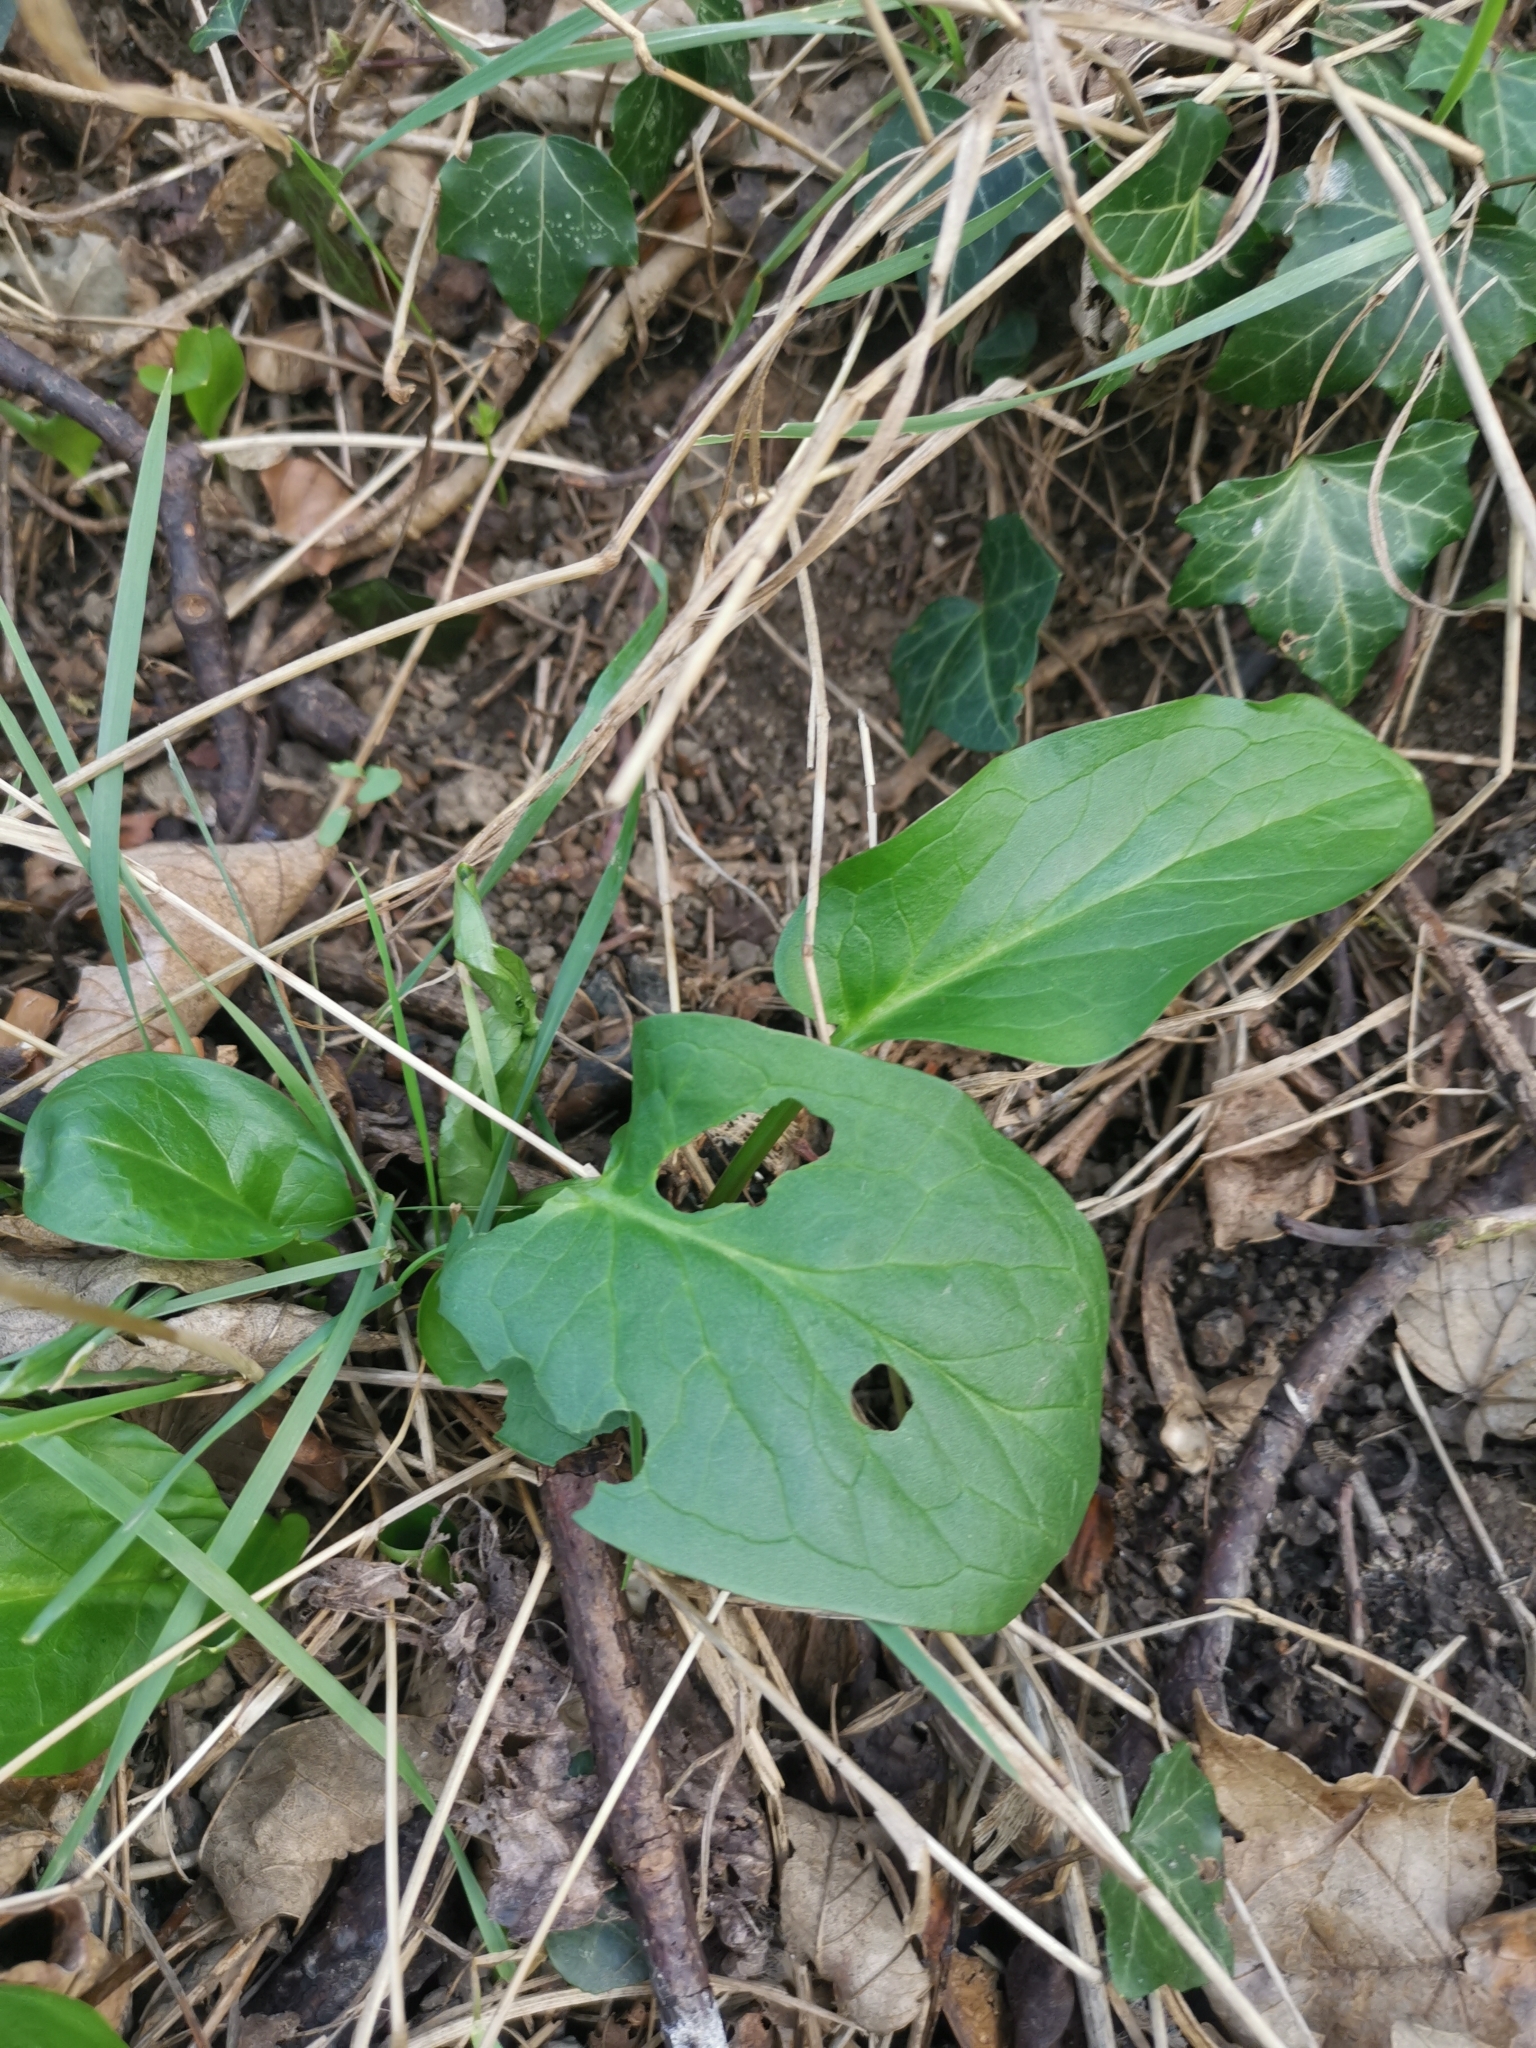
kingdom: Plantae
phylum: Tracheophyta
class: Liliopsida
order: Alismatales
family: Araceae
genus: Arum
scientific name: Arum maculatum
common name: Lords-and-ladies
